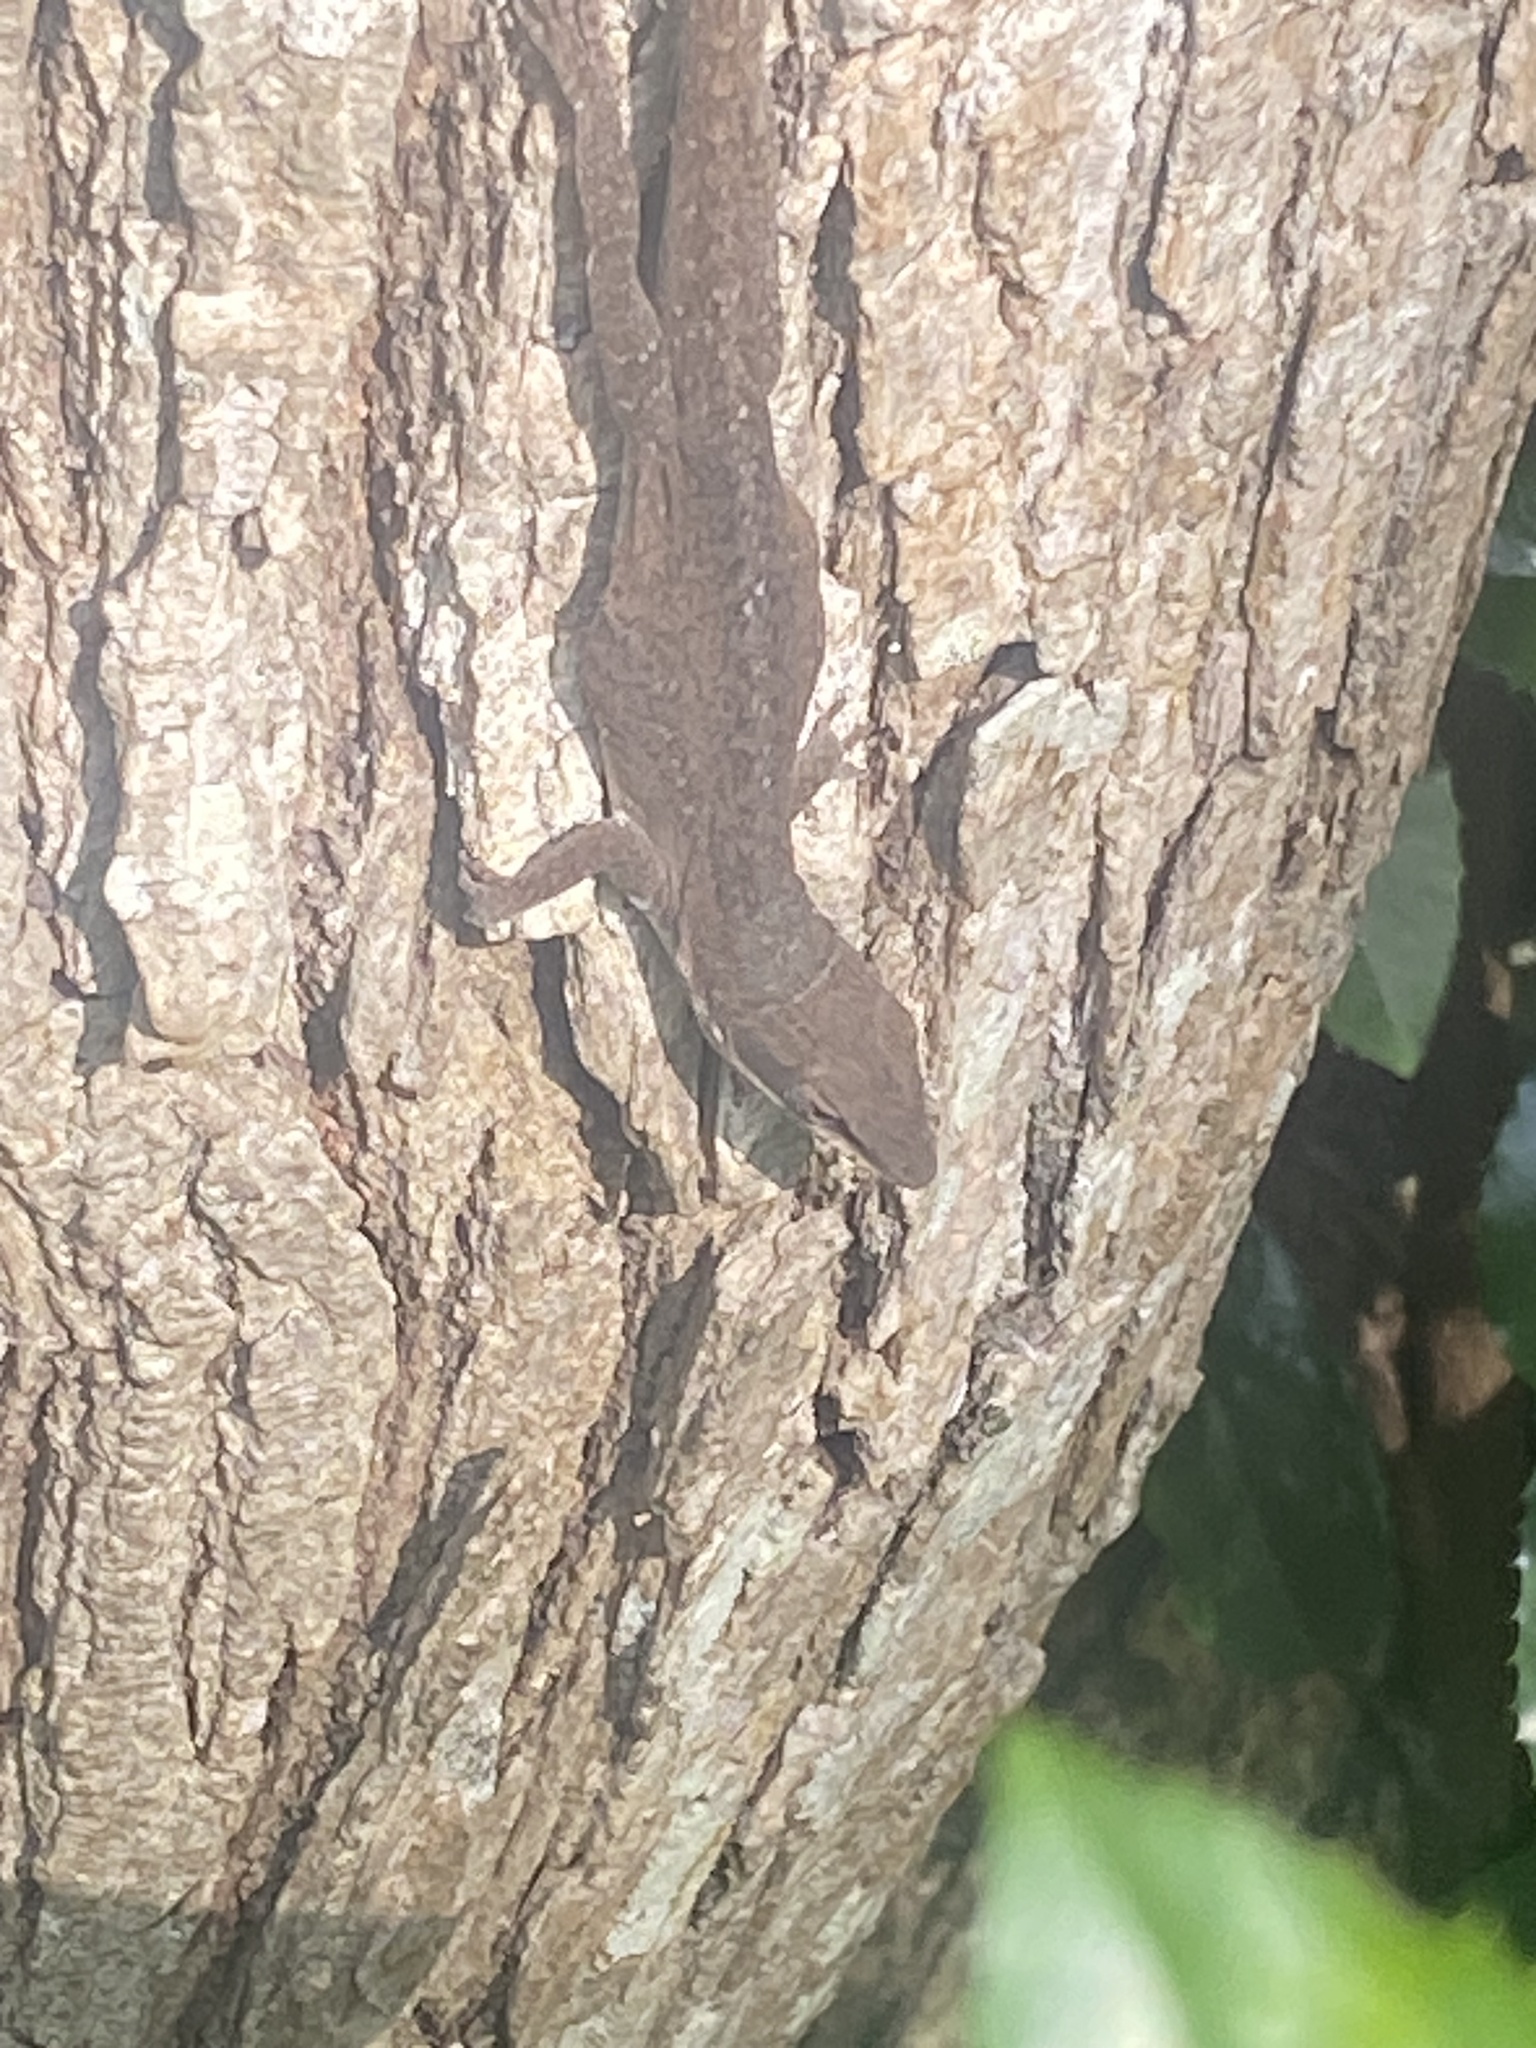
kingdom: Animalia
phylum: Chordata
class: Squamata
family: Dactyloidae
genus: Anolis
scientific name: Anolis carolinensis
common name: Green anole
